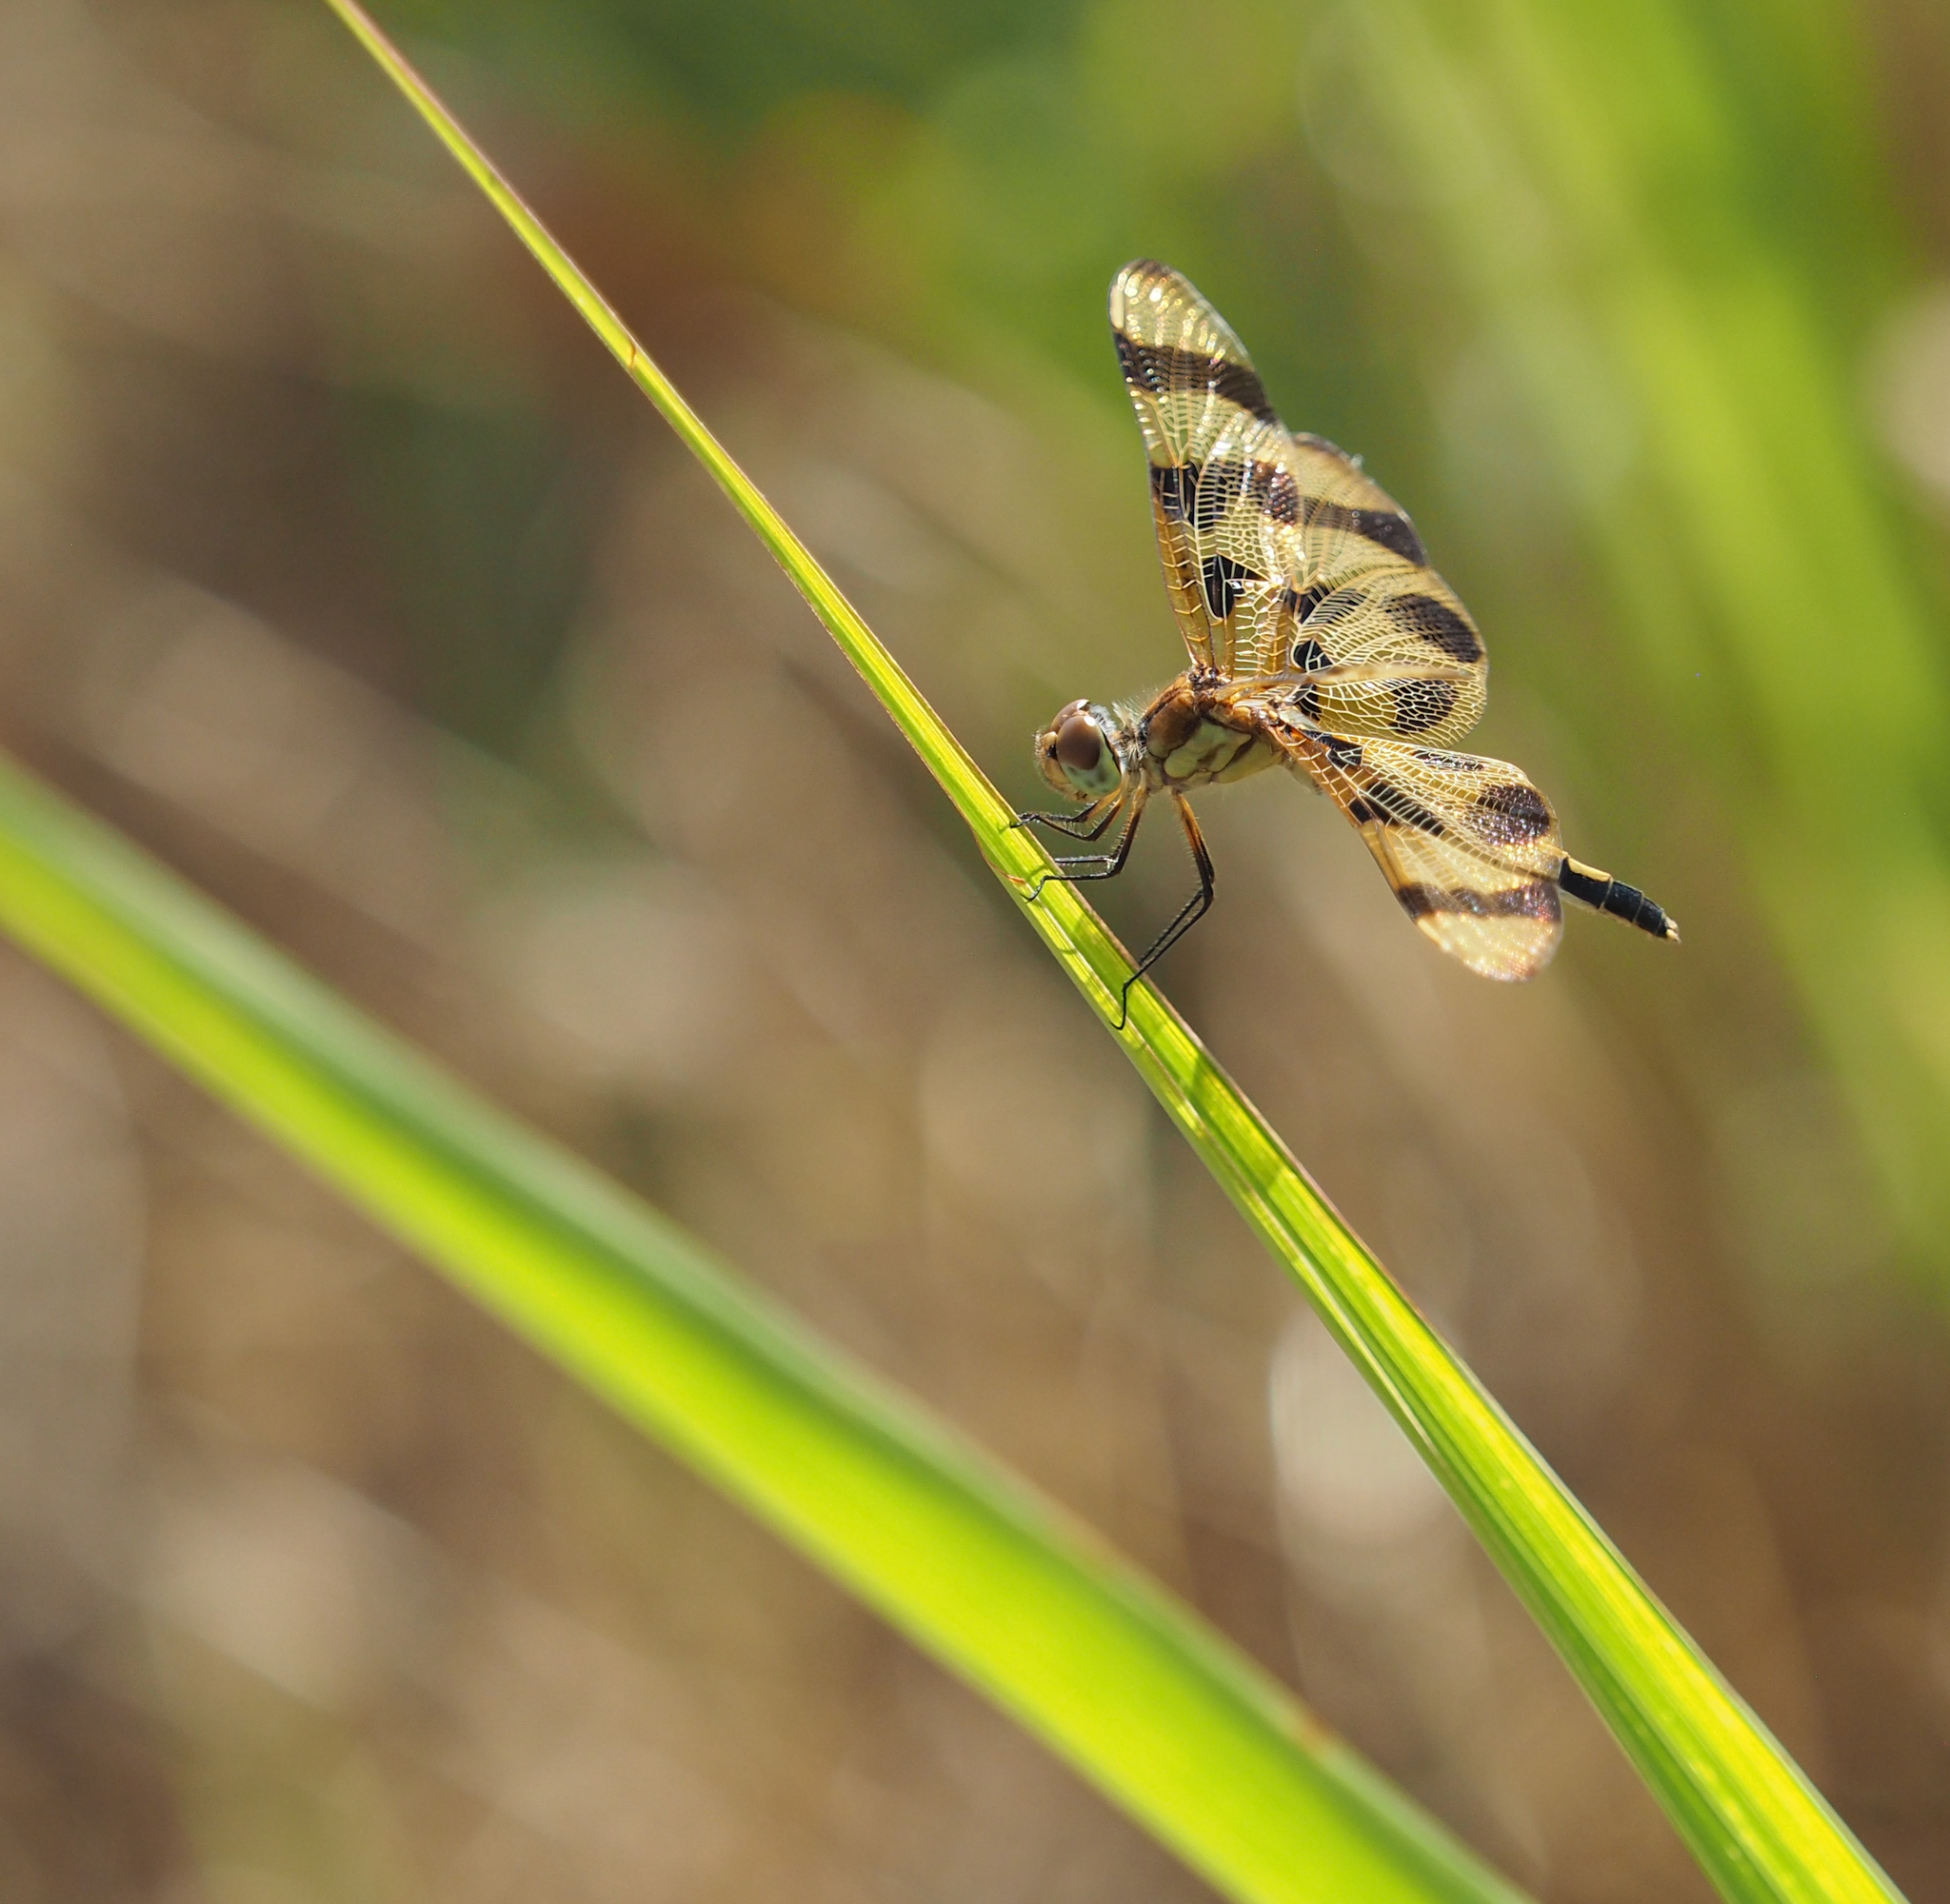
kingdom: Animalia
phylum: Arthropoda
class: Insecta
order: Odonata
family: Libellulidae
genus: Celithemis
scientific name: Celithemis eponina
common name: Halloween pennant
